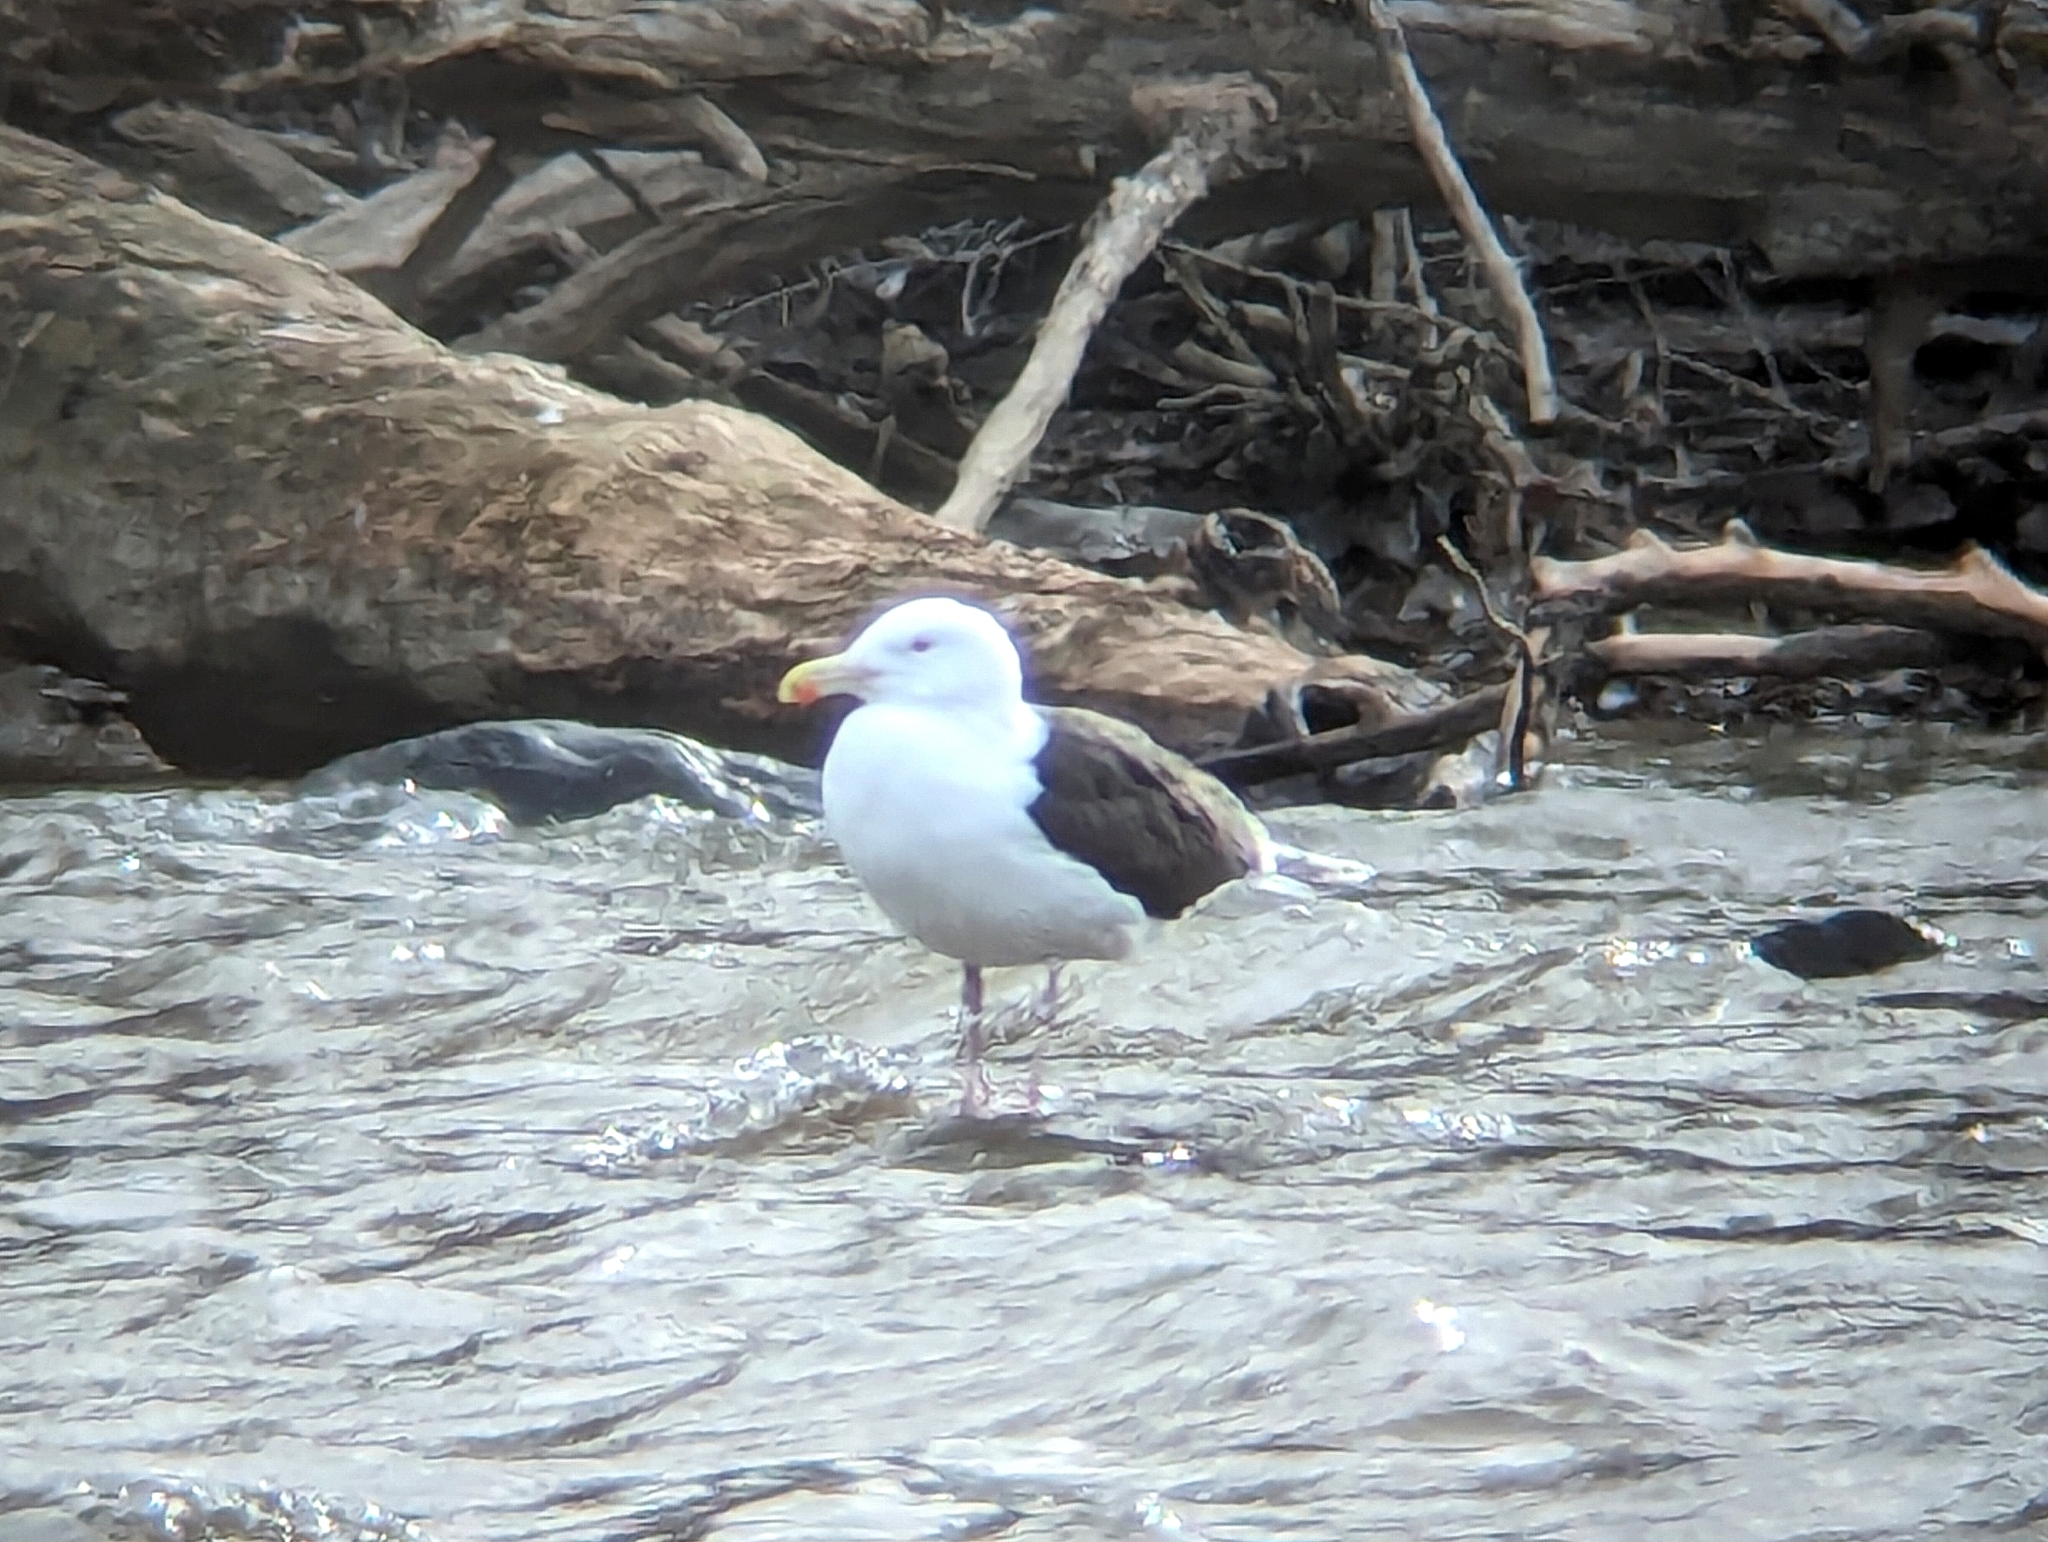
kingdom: Animalia
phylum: Chordata
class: Aves
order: Charadriiformes
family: Laridae
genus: Larus
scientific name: Larus marinus
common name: Great black-backed gull
